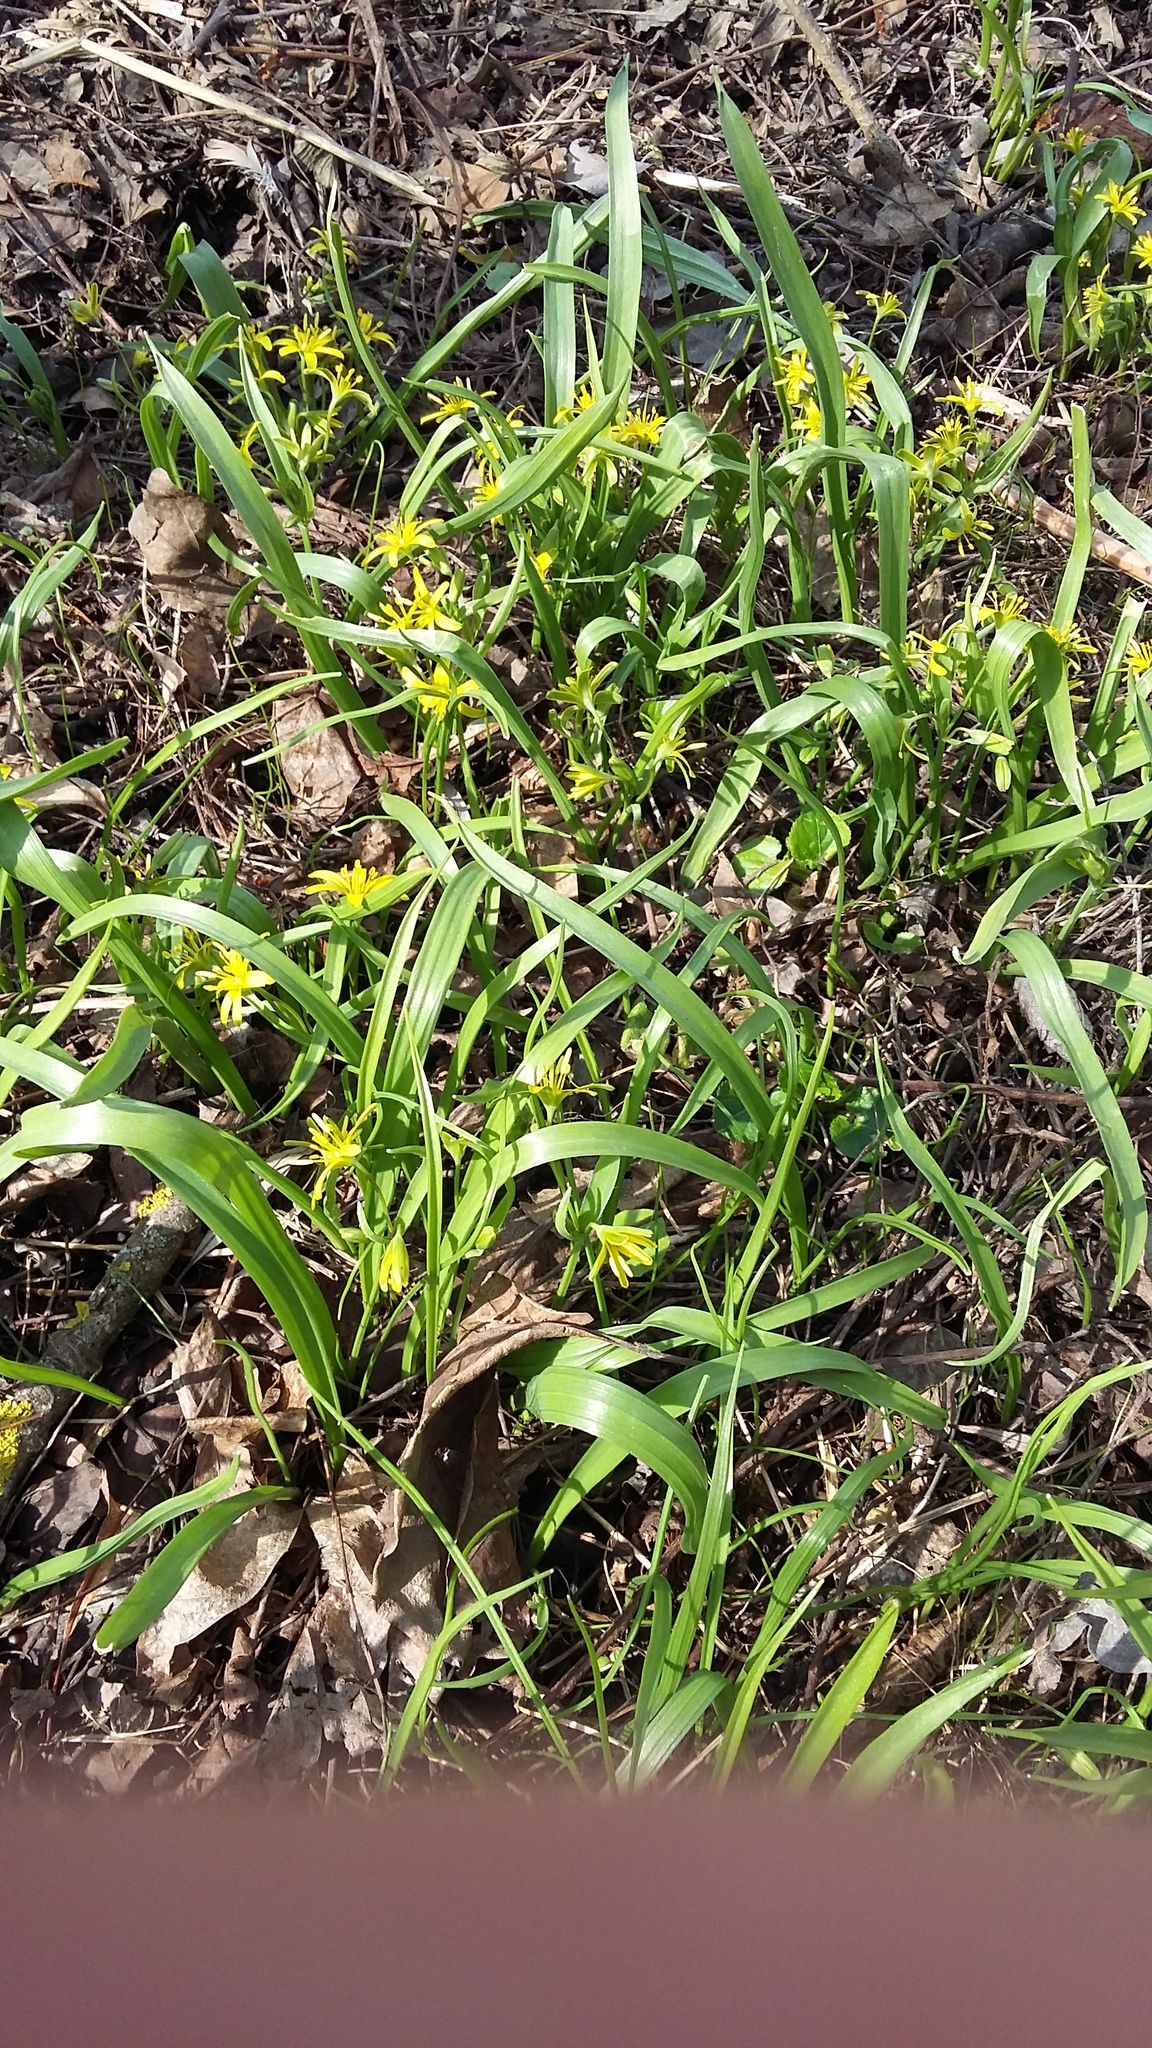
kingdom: Plantae
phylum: Tracheophyta
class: Liliopsida
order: Liliales
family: Liliaceae
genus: Gagea
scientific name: Gagea lutea
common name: Yellow star-of-bethlehem
